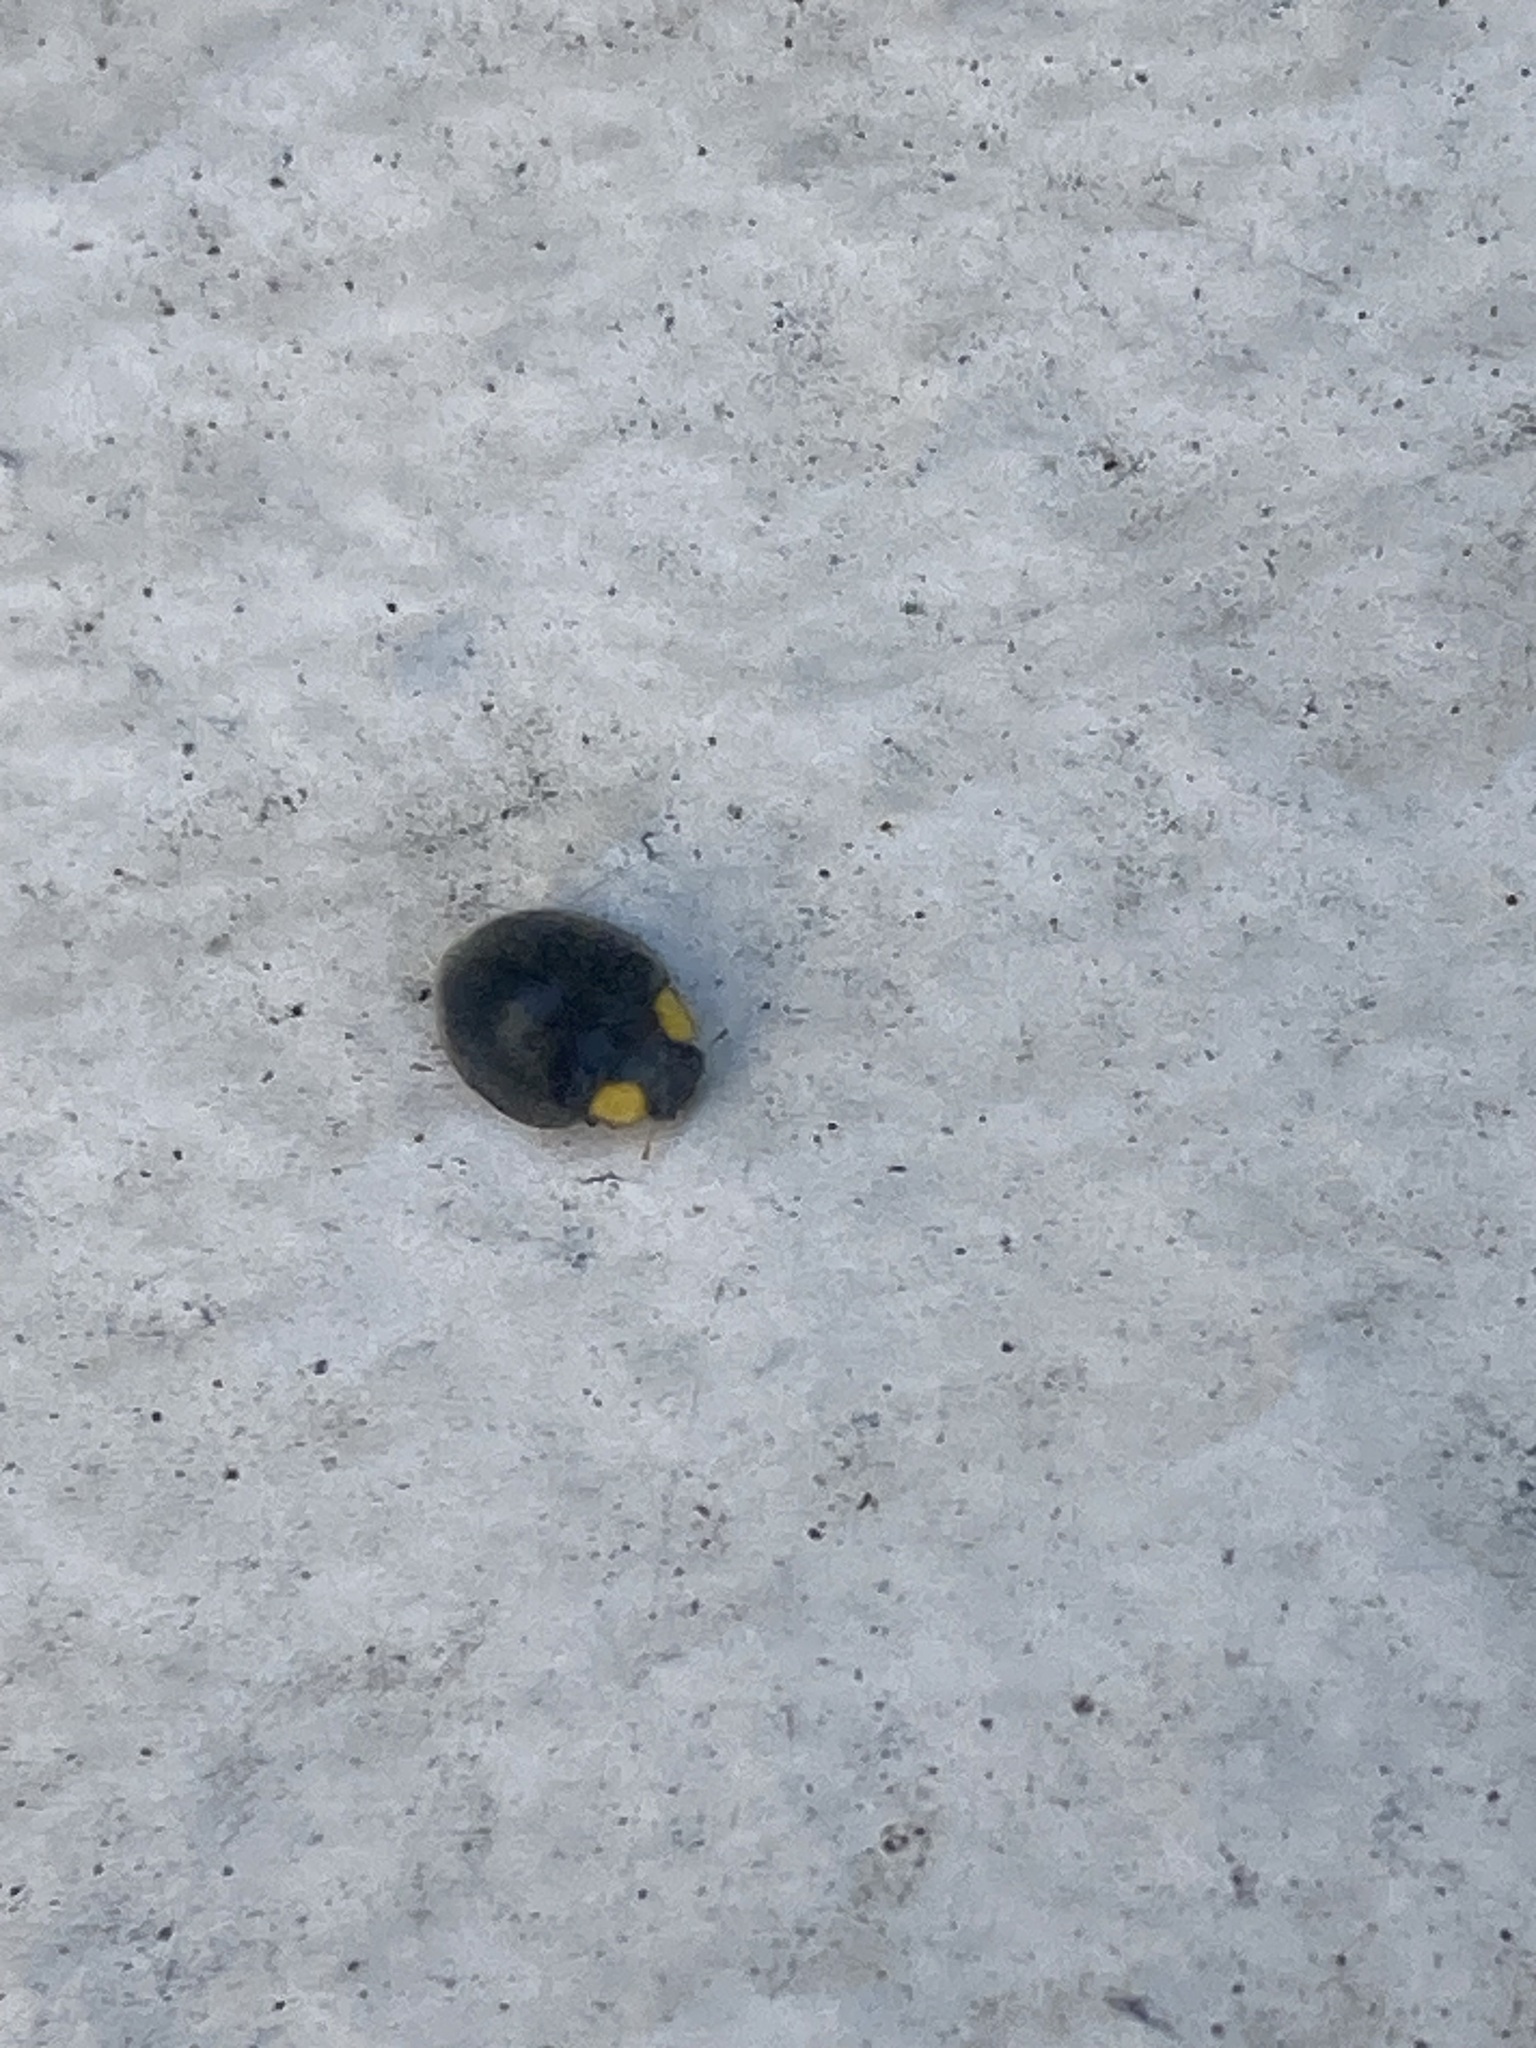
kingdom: Animalia
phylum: Arthropoda
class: Insecta
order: Coleoptera
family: Coccinellidae
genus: Scymnodes
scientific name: Scymnodes lividigaster
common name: Yellowshouldered lady beetle
